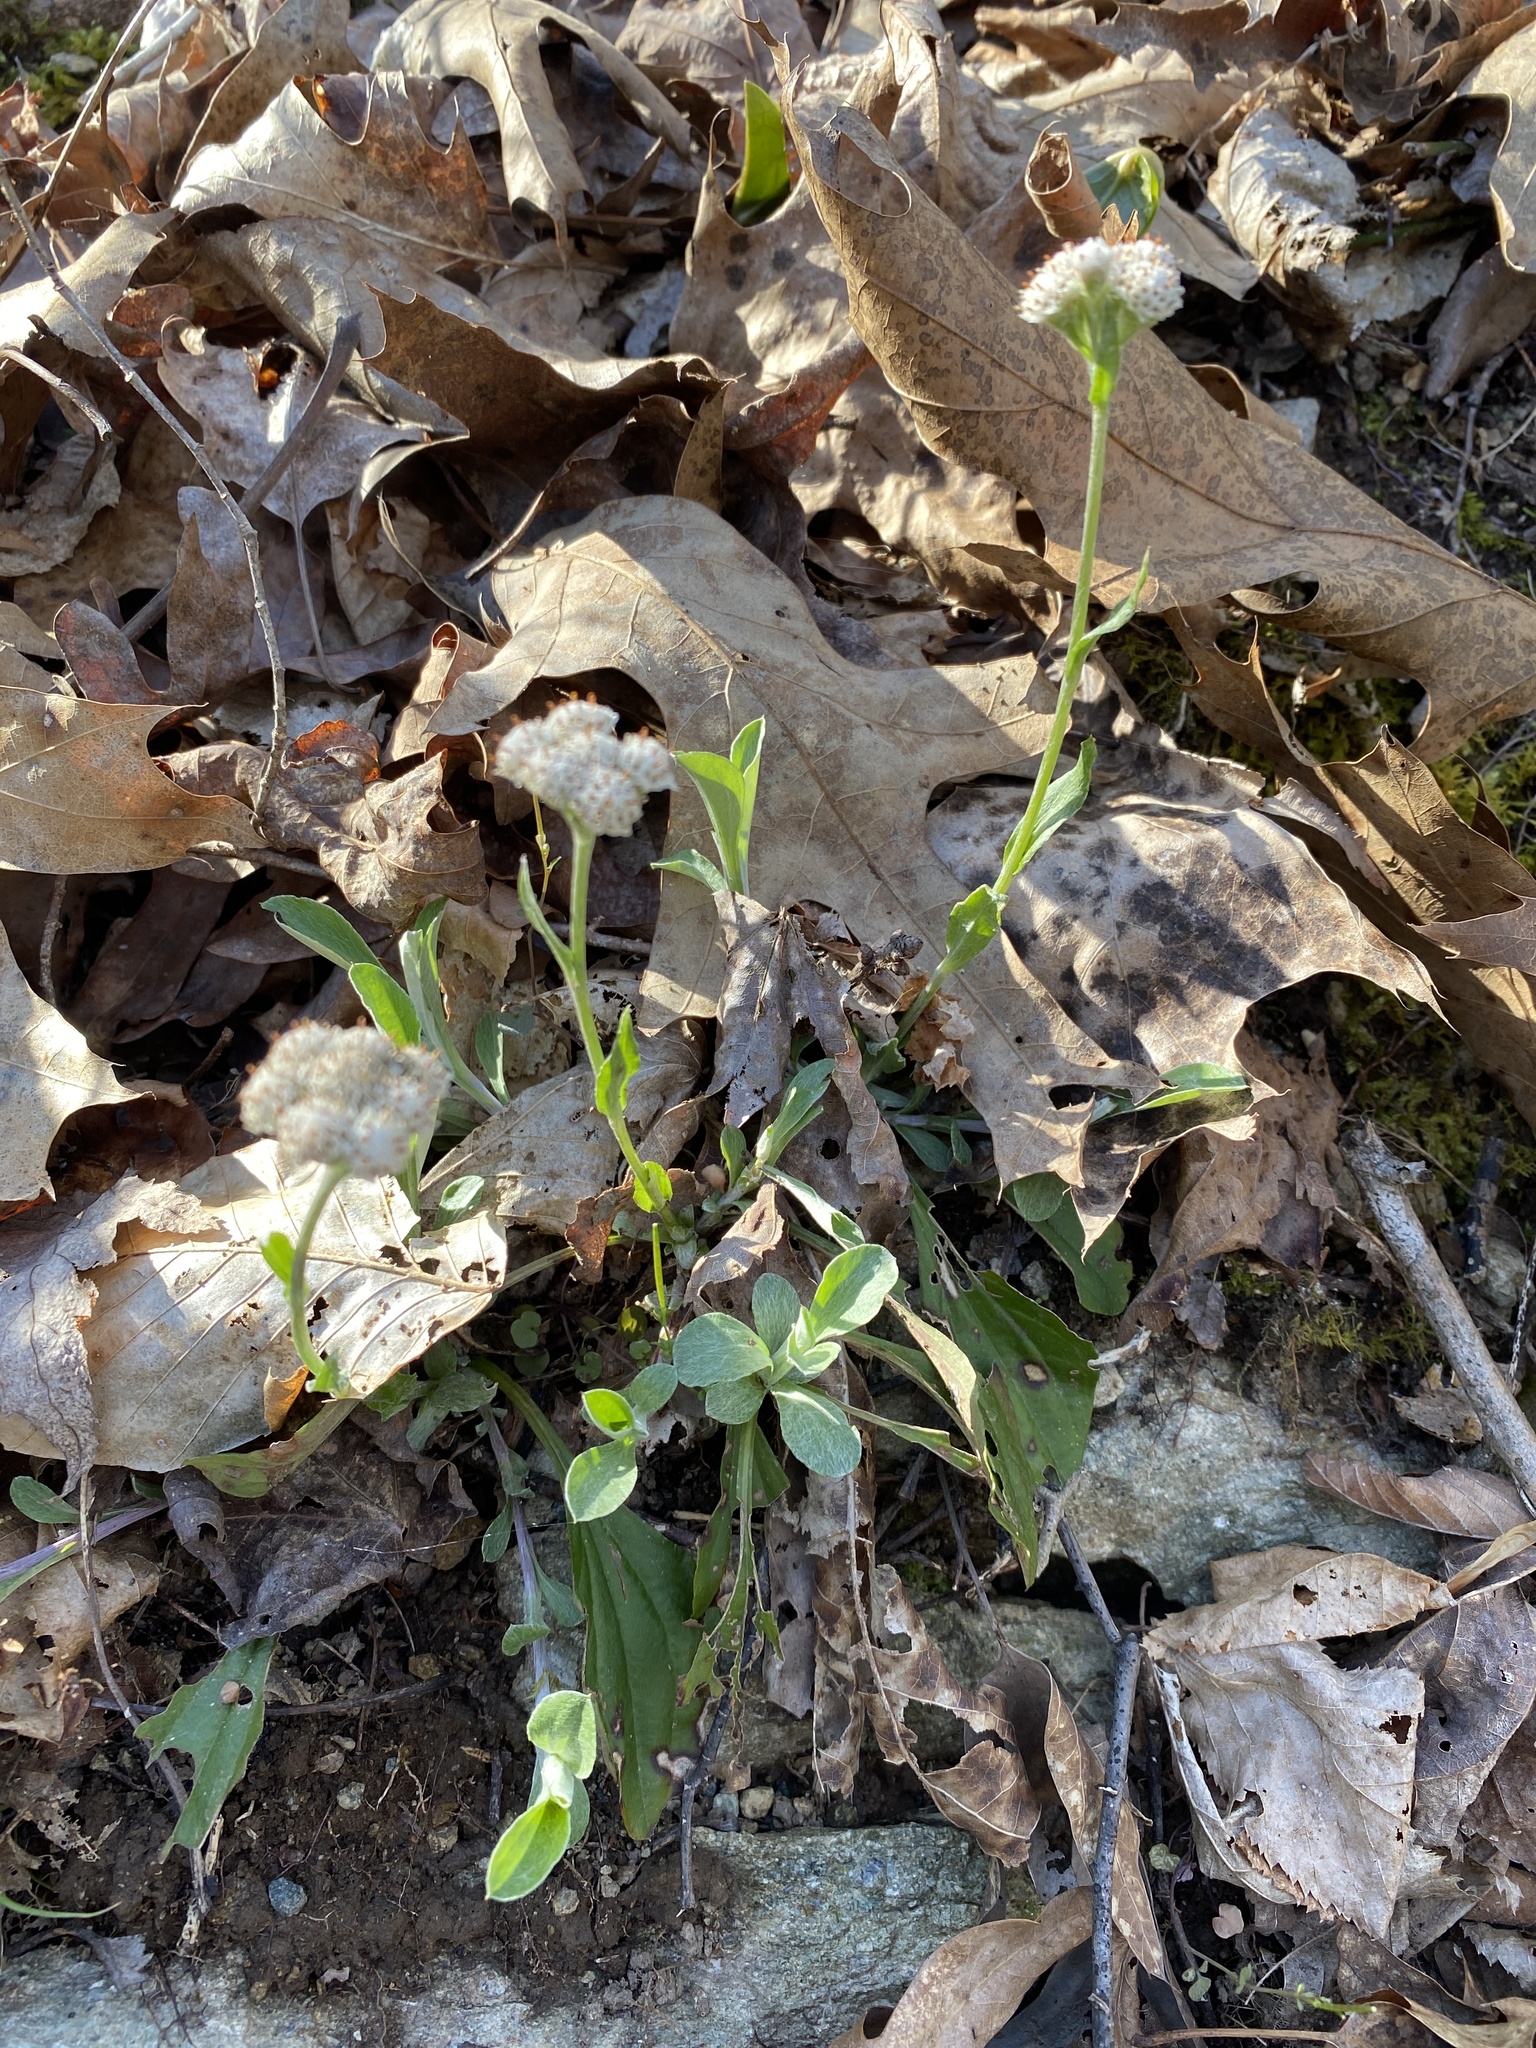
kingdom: Plantae
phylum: Tracheophyta
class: Magnoliopsida
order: Asterales
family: Asteraceae
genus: Antennaria
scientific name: Antennaria plantaginifolia
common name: Plantain-leaved pussytoes
